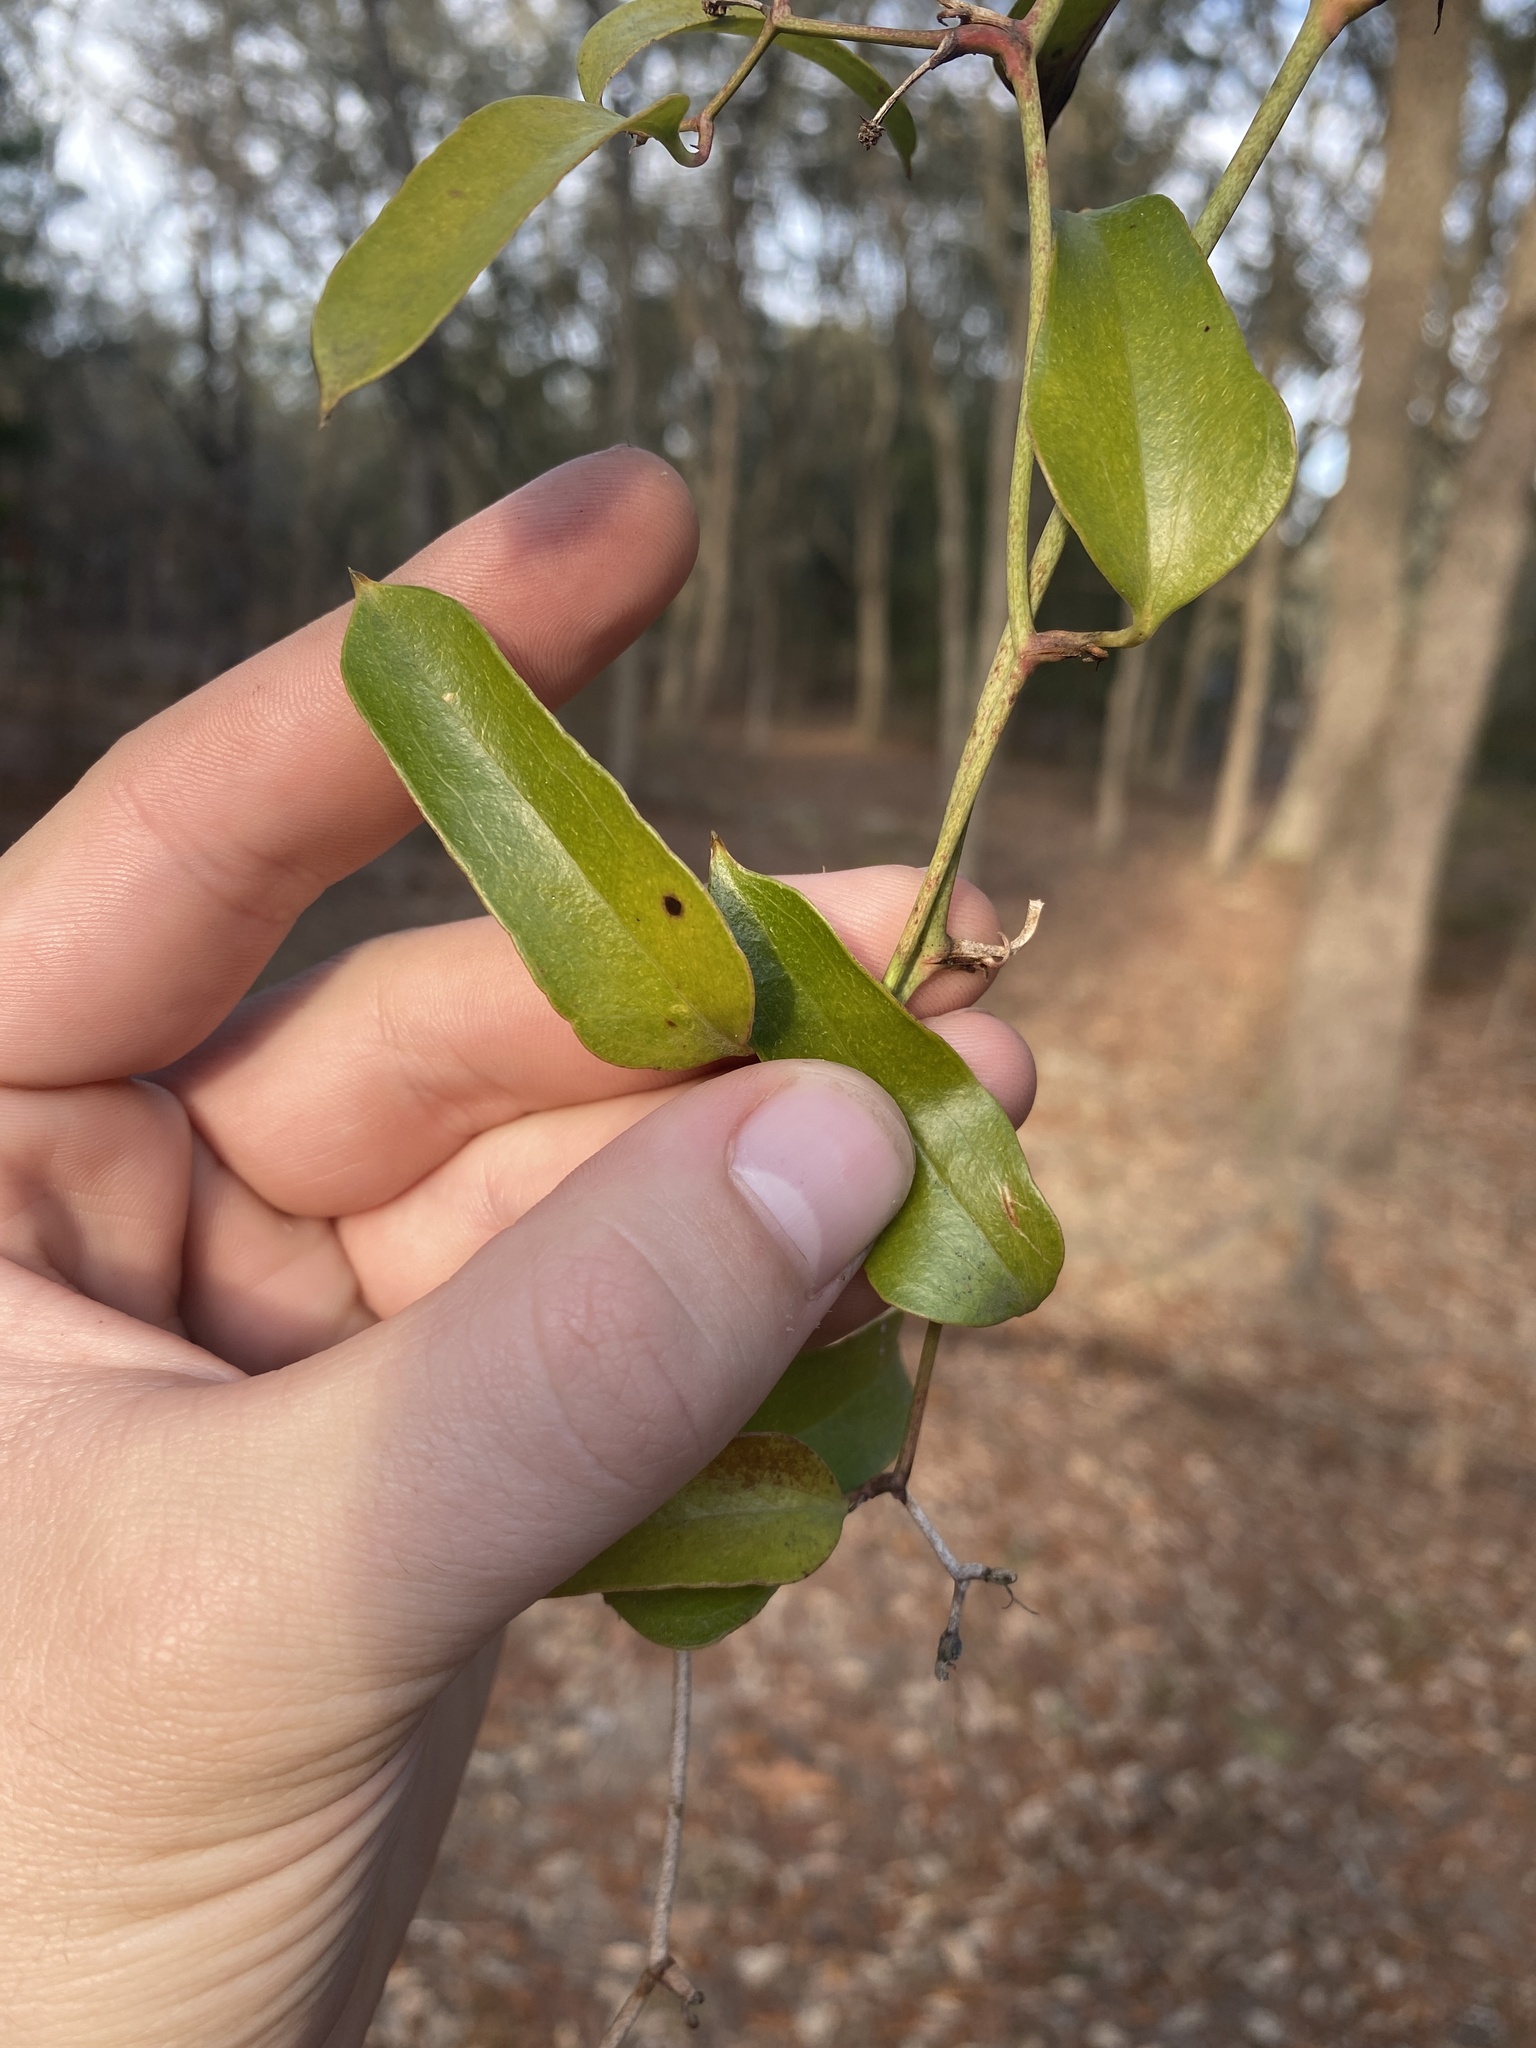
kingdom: Plantae
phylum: Tracheophyta
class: Liliopsida
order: Liliales
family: Smilacaceae
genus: Smilax
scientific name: Smilax auriculata
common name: Wild bamboo
